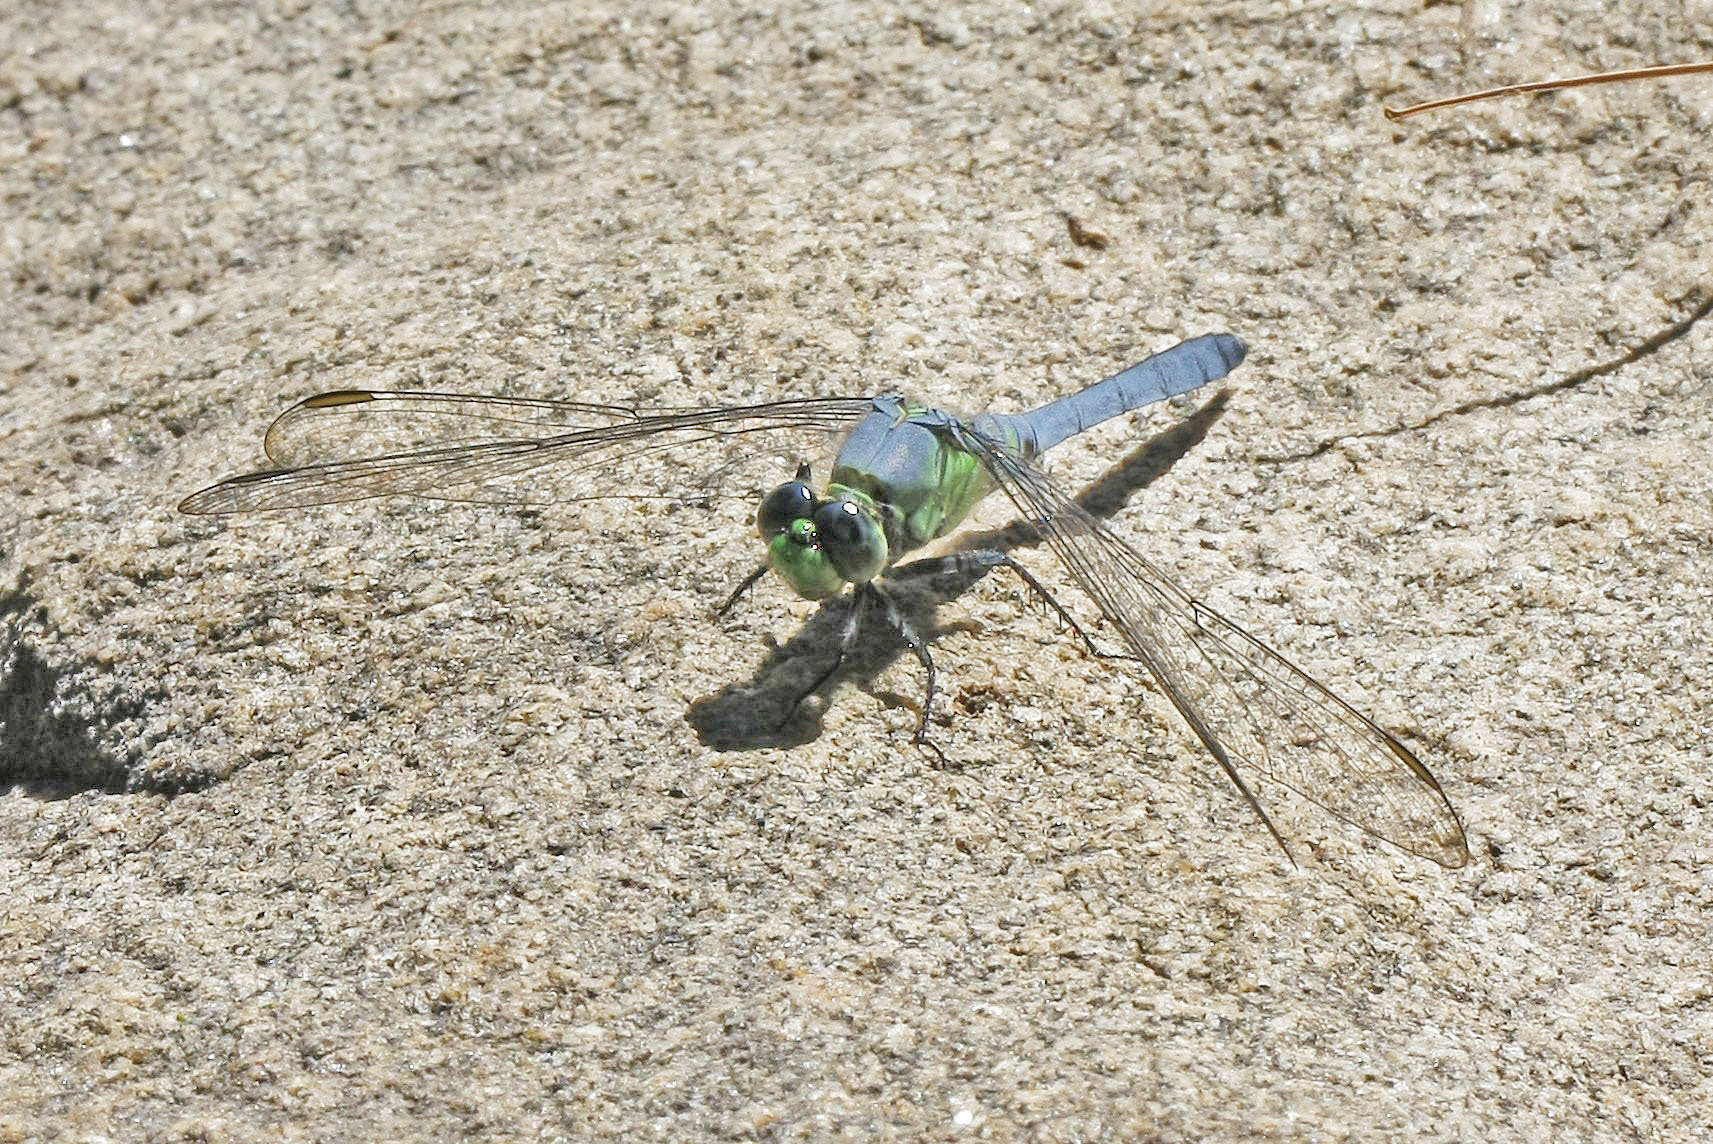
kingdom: Animalia
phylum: Arthropoda
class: Insecta
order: Odonata
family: Libellulidae
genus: Erythemis
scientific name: Erythemis simplicicollis
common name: Eastern pondhawk
